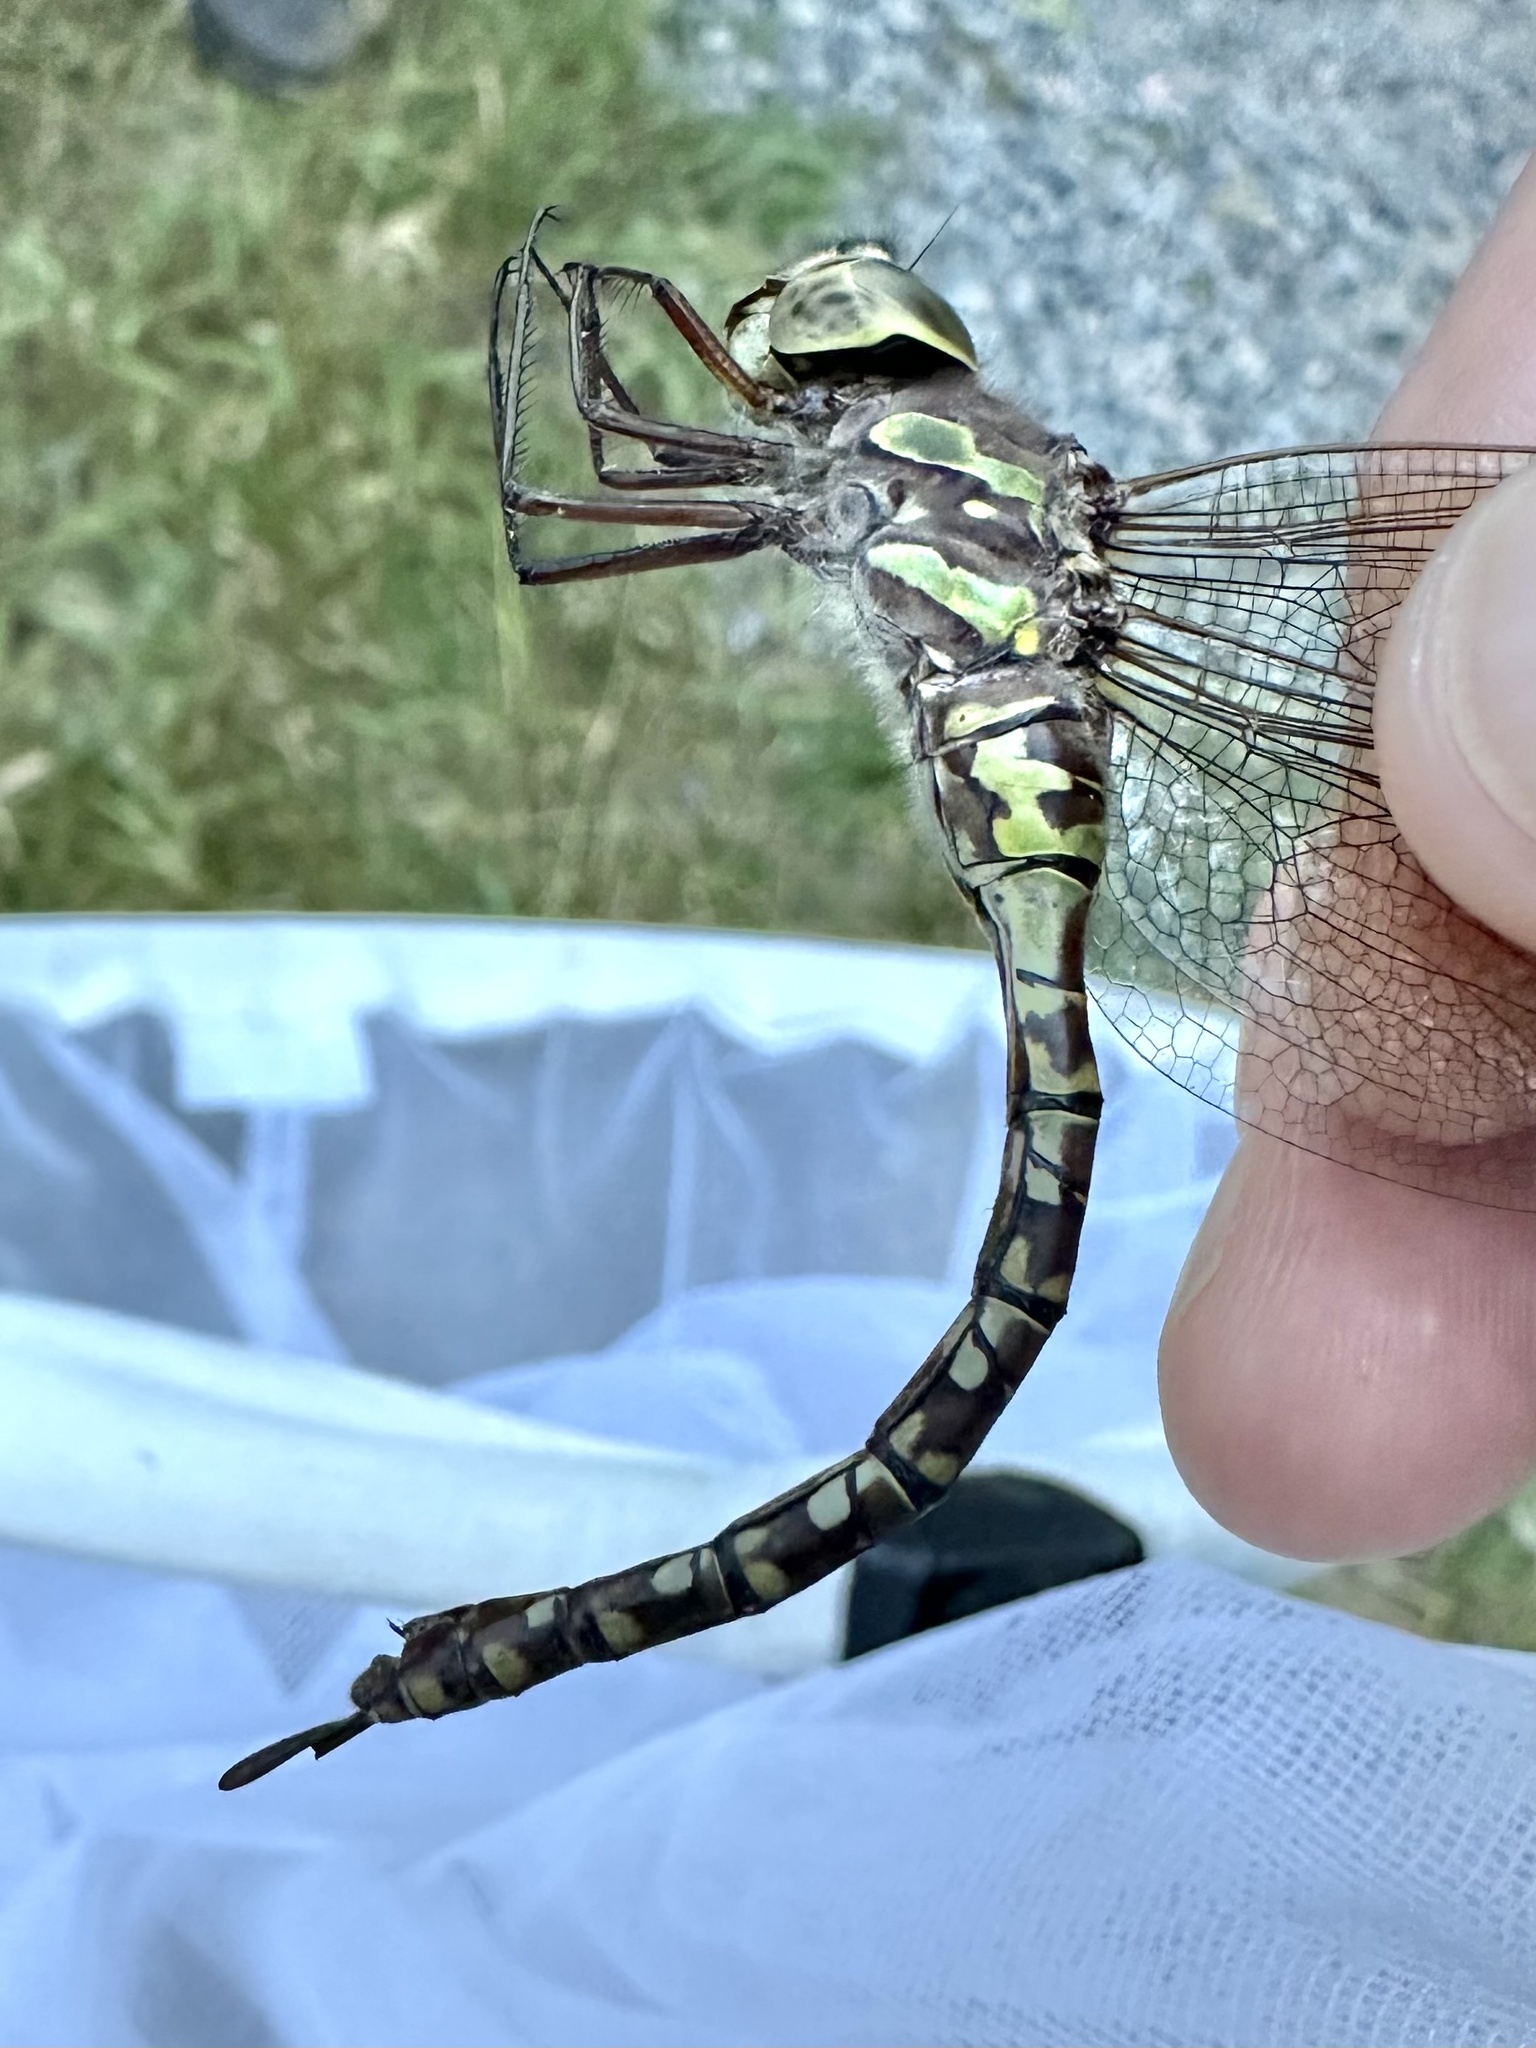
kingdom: Animalia
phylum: Arthropoda
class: Insecta
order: Odonata
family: Aeshnidae
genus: Aeshna
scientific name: Aeshna canadensis
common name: Canada darner
